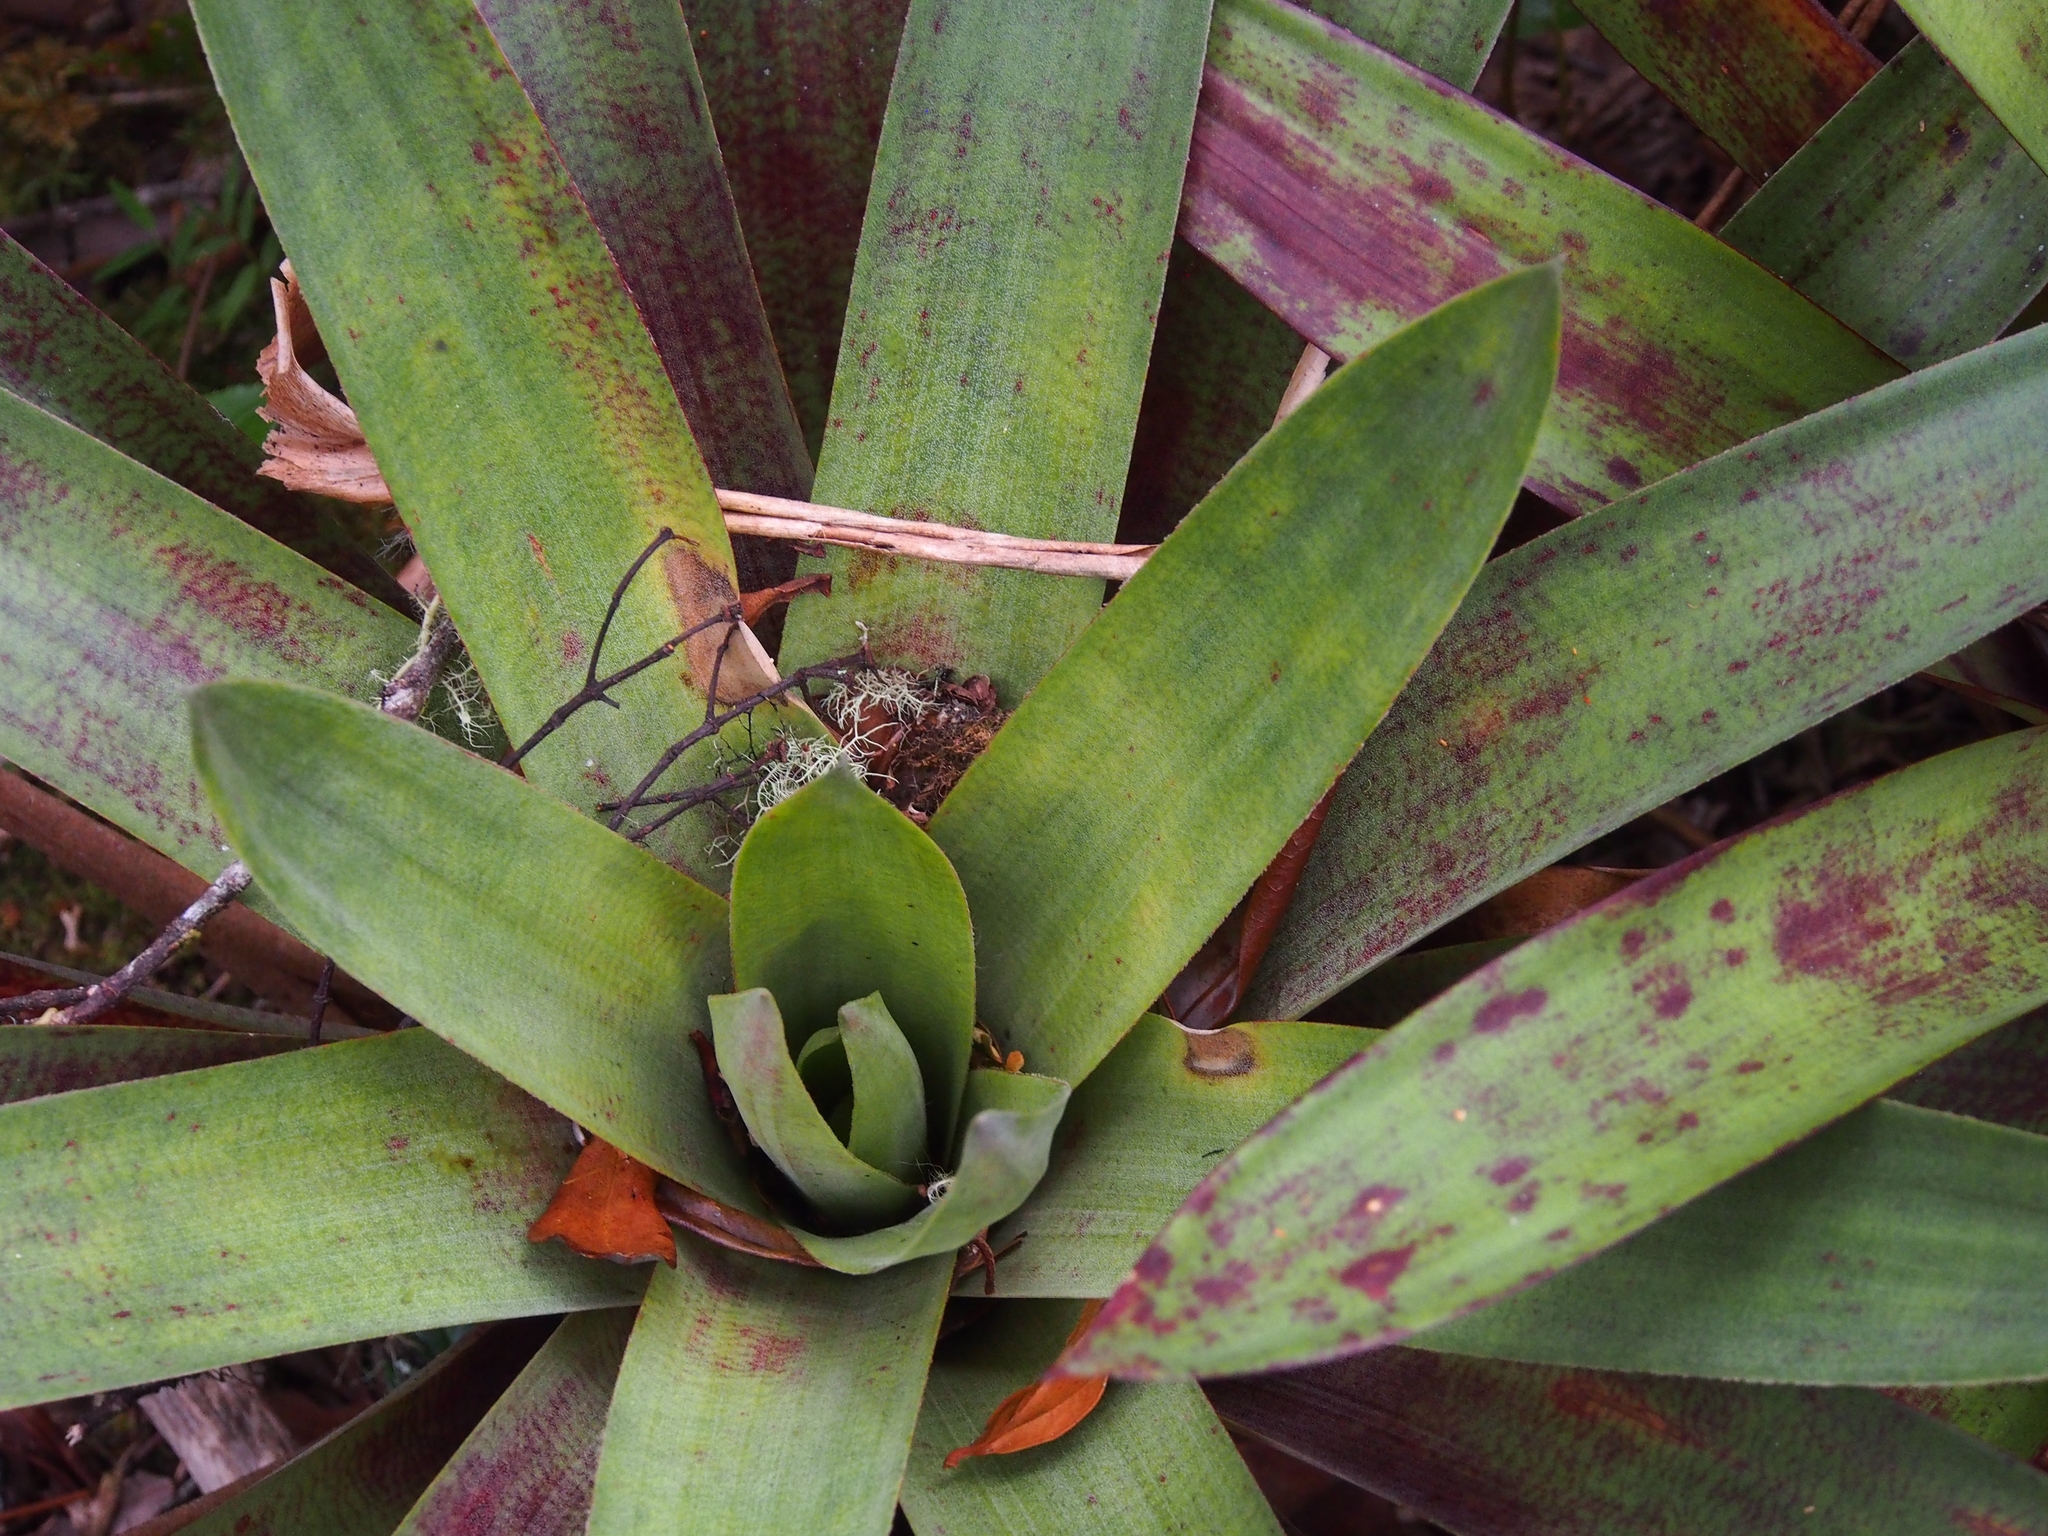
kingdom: Plantae
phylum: Tracheophyta
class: Liliopsida
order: Poales
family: Bromeliaceae
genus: Werauhia
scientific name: Werauhia ororiensis
